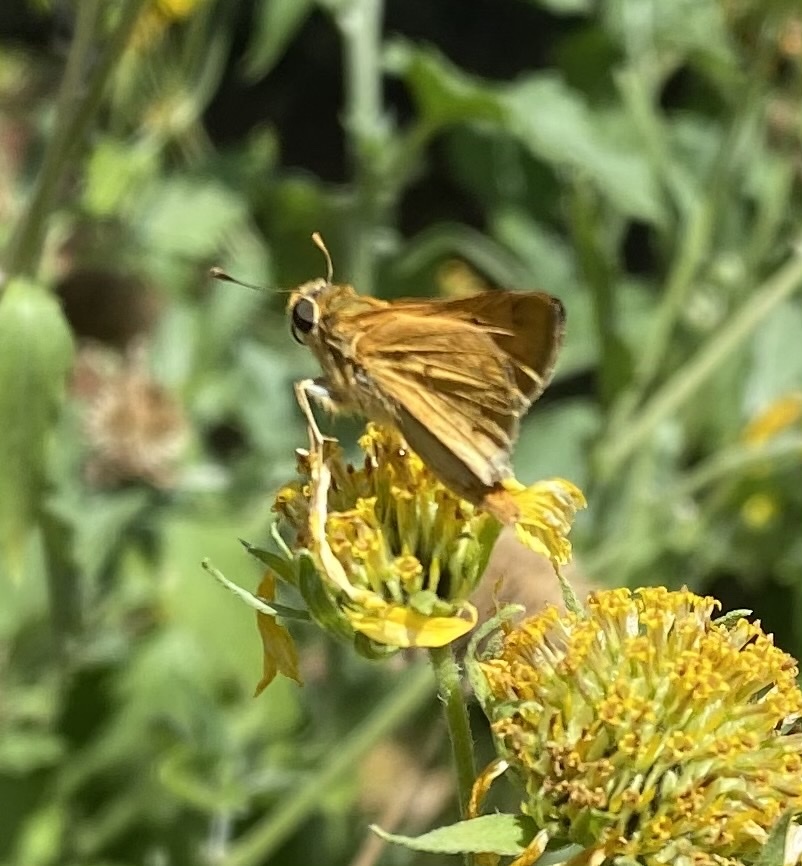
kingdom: Animalia
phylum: Arthropoda
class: Insecta
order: Lepidoptera
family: Hesperiidae
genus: Hylephila
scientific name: Hylephila phyleus
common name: Fiery skipper
